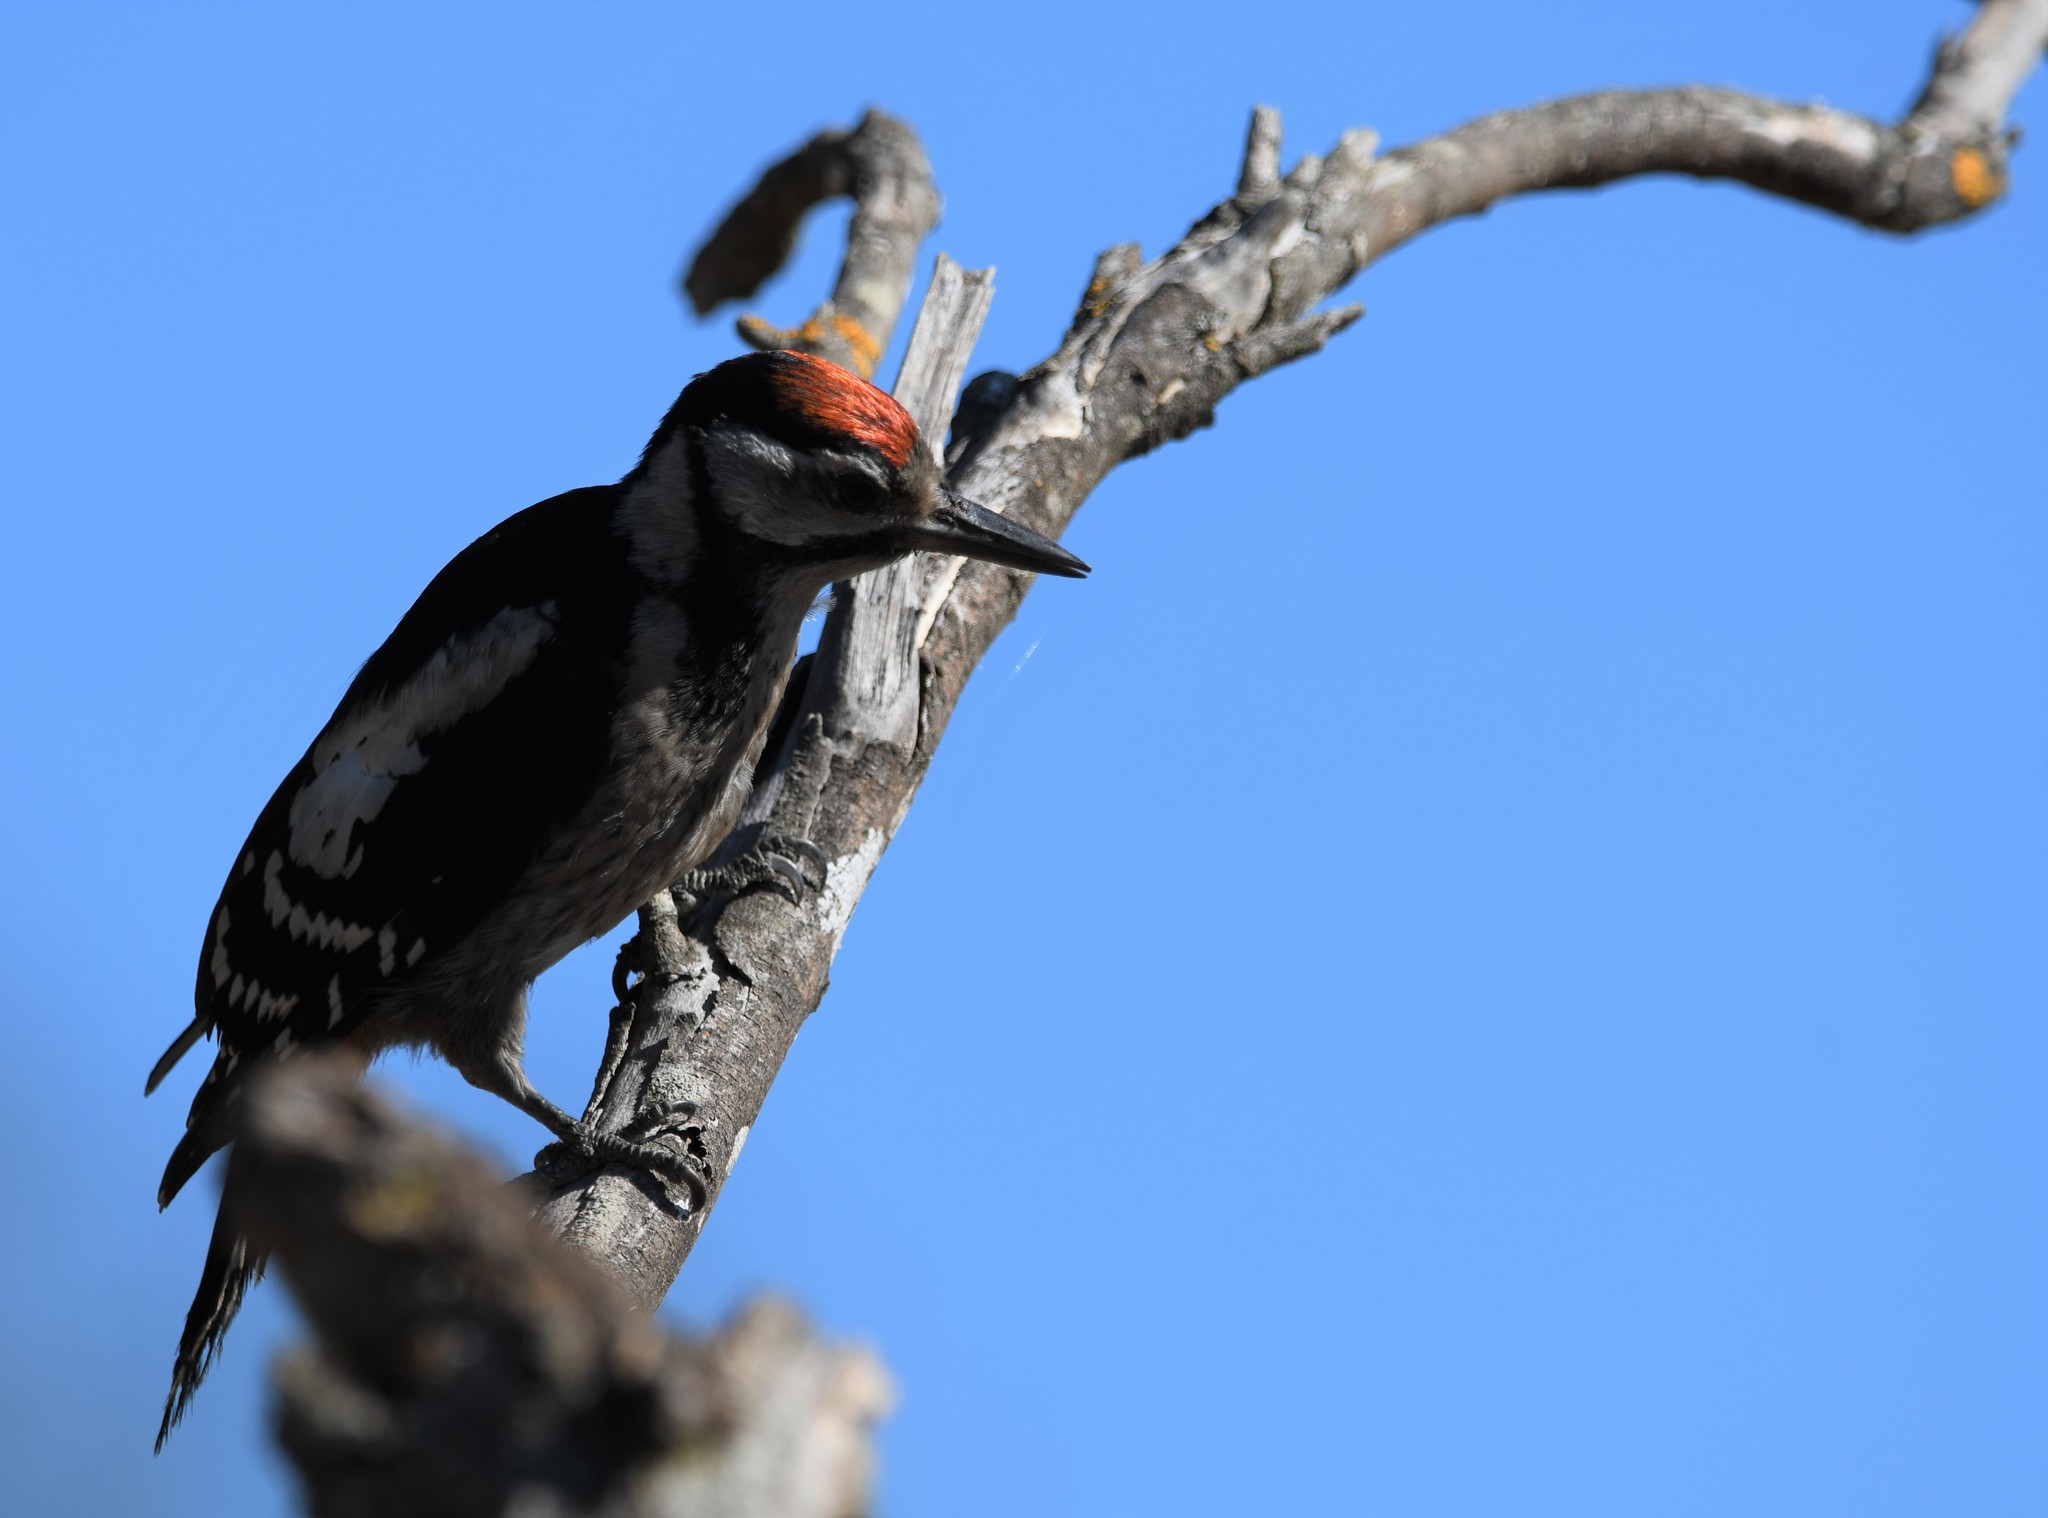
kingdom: Animalia
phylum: Chordata
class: Aves
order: Piciformes
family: Picidae
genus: Dendrocopos
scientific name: Dendrocopos major
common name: Great spotted woodpecker
